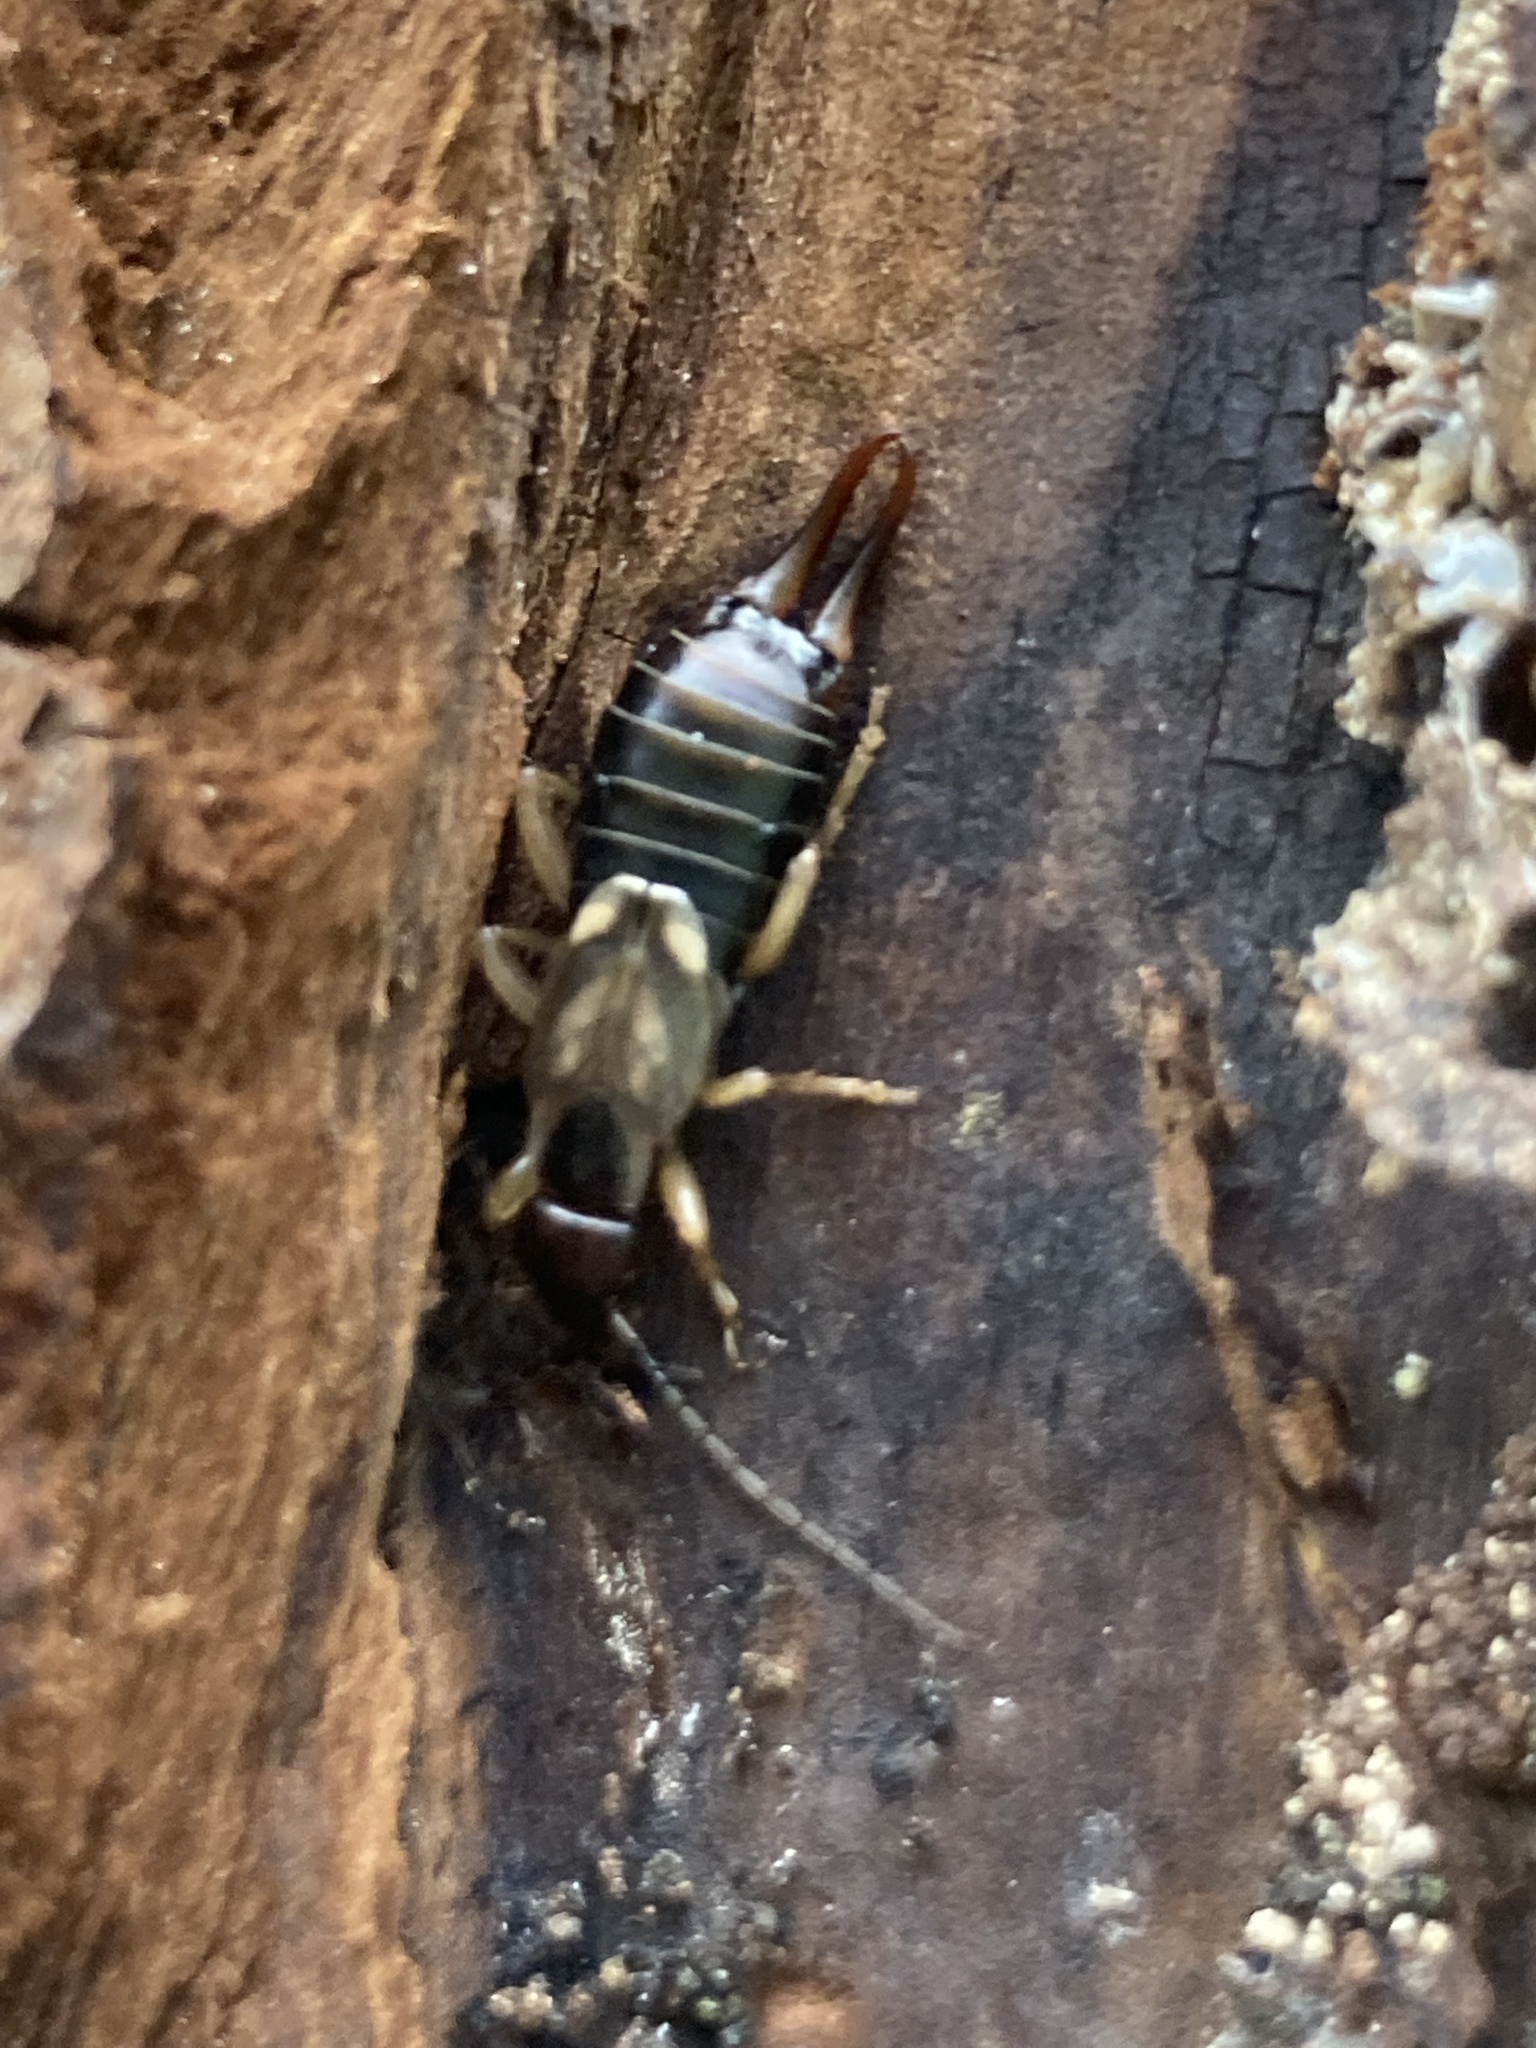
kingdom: Animalia
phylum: Arthropoda
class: Insecta
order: Dermaptera
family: Forficulidae
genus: Forficula
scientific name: Forficula
